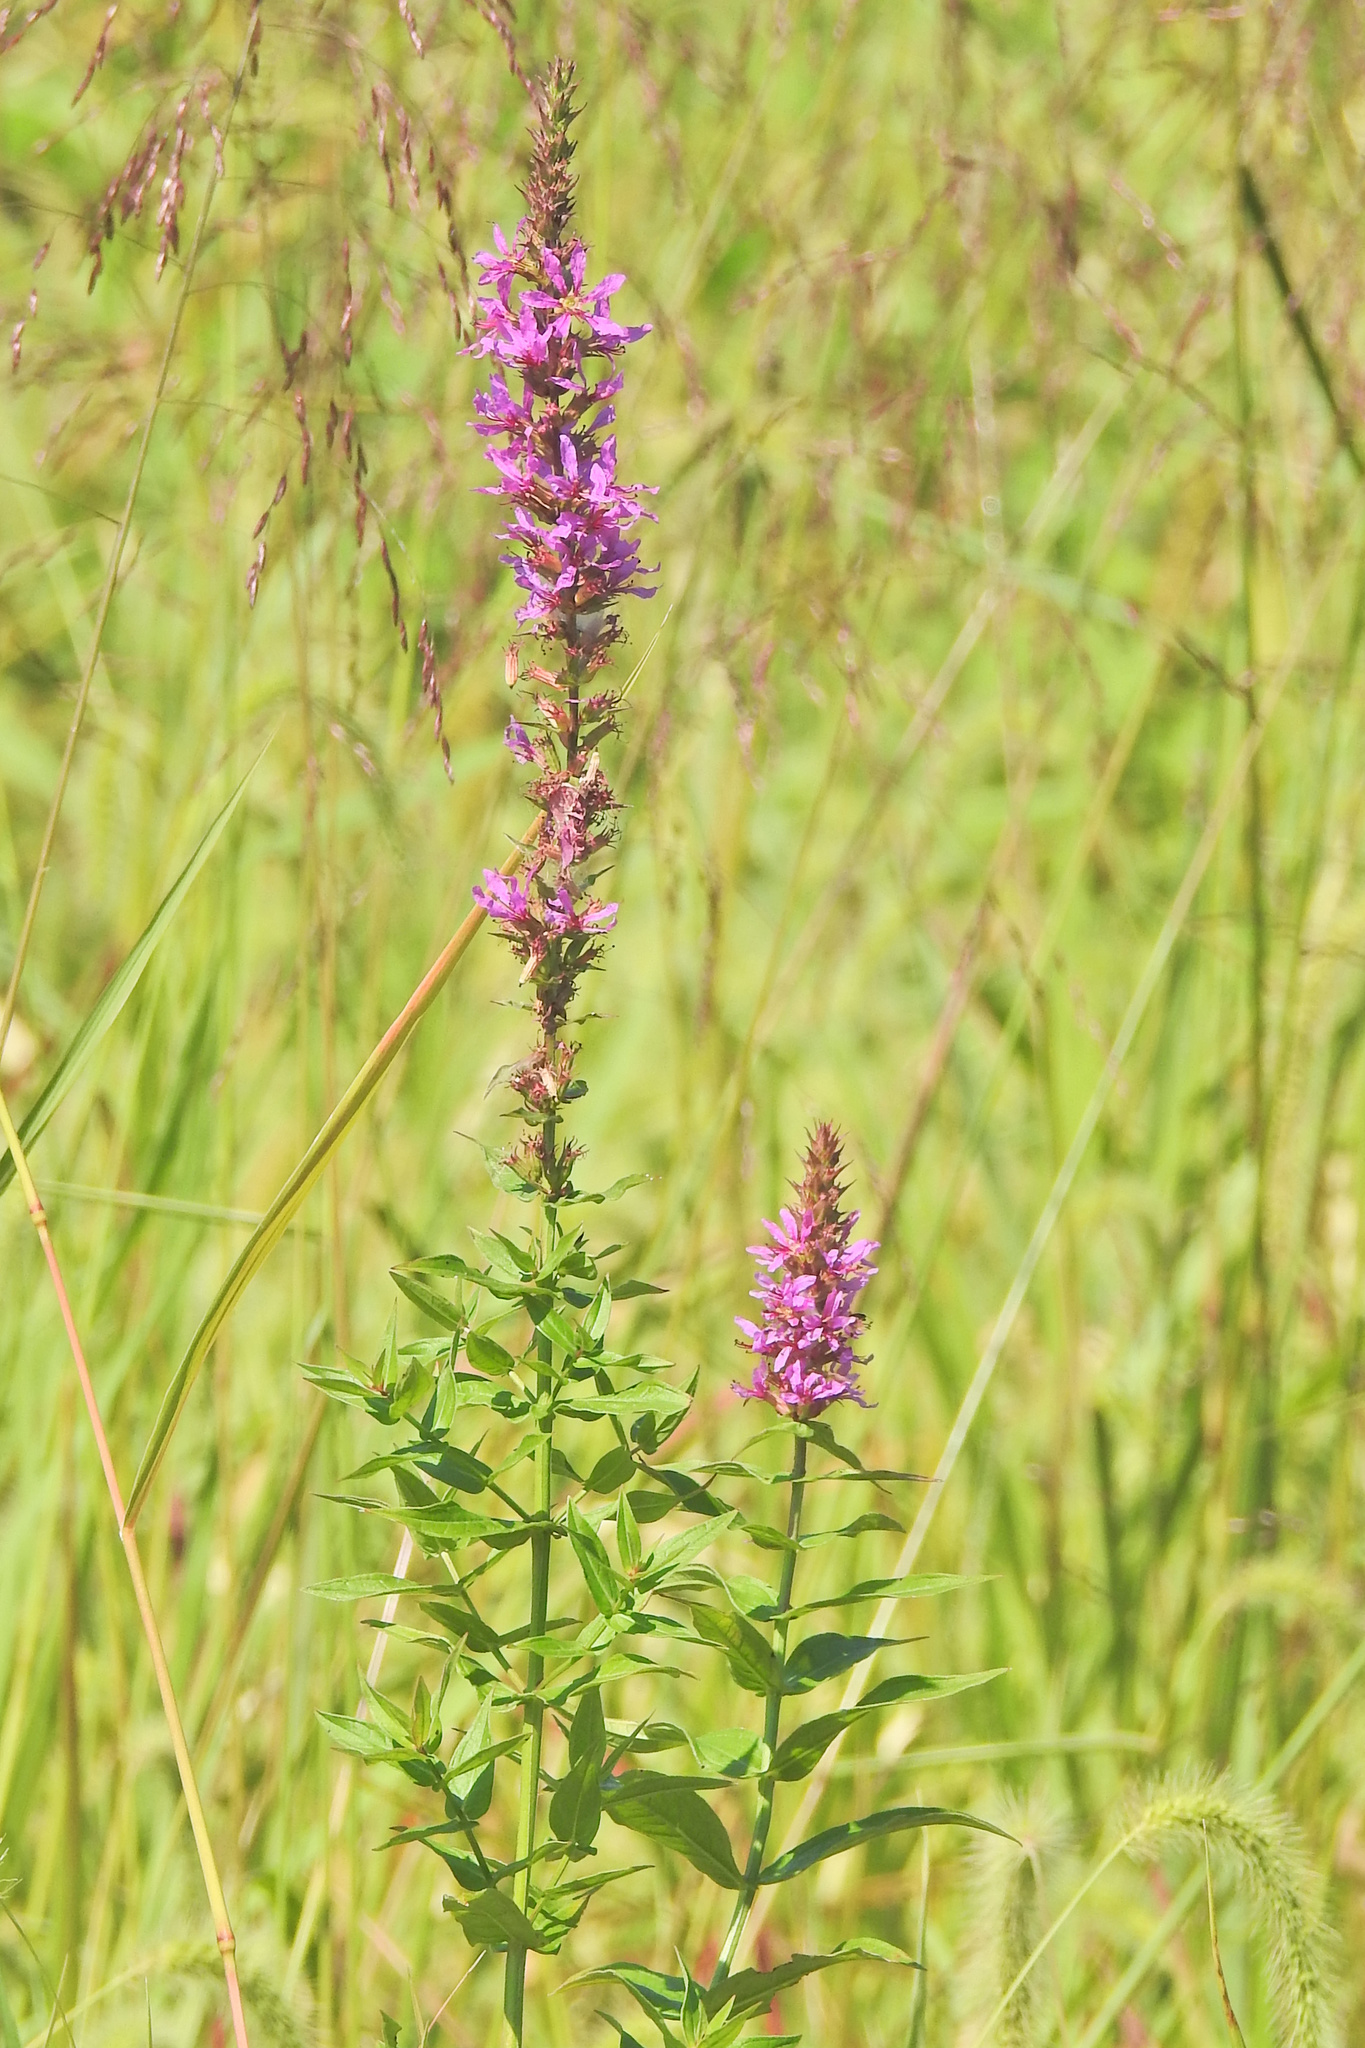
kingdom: Plantae
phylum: Tracheophyta
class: Magnoliopsida
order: Myrtales
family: Lythraceae
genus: Lythrum
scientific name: Lythrum salicaria
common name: Purple loosestrife
